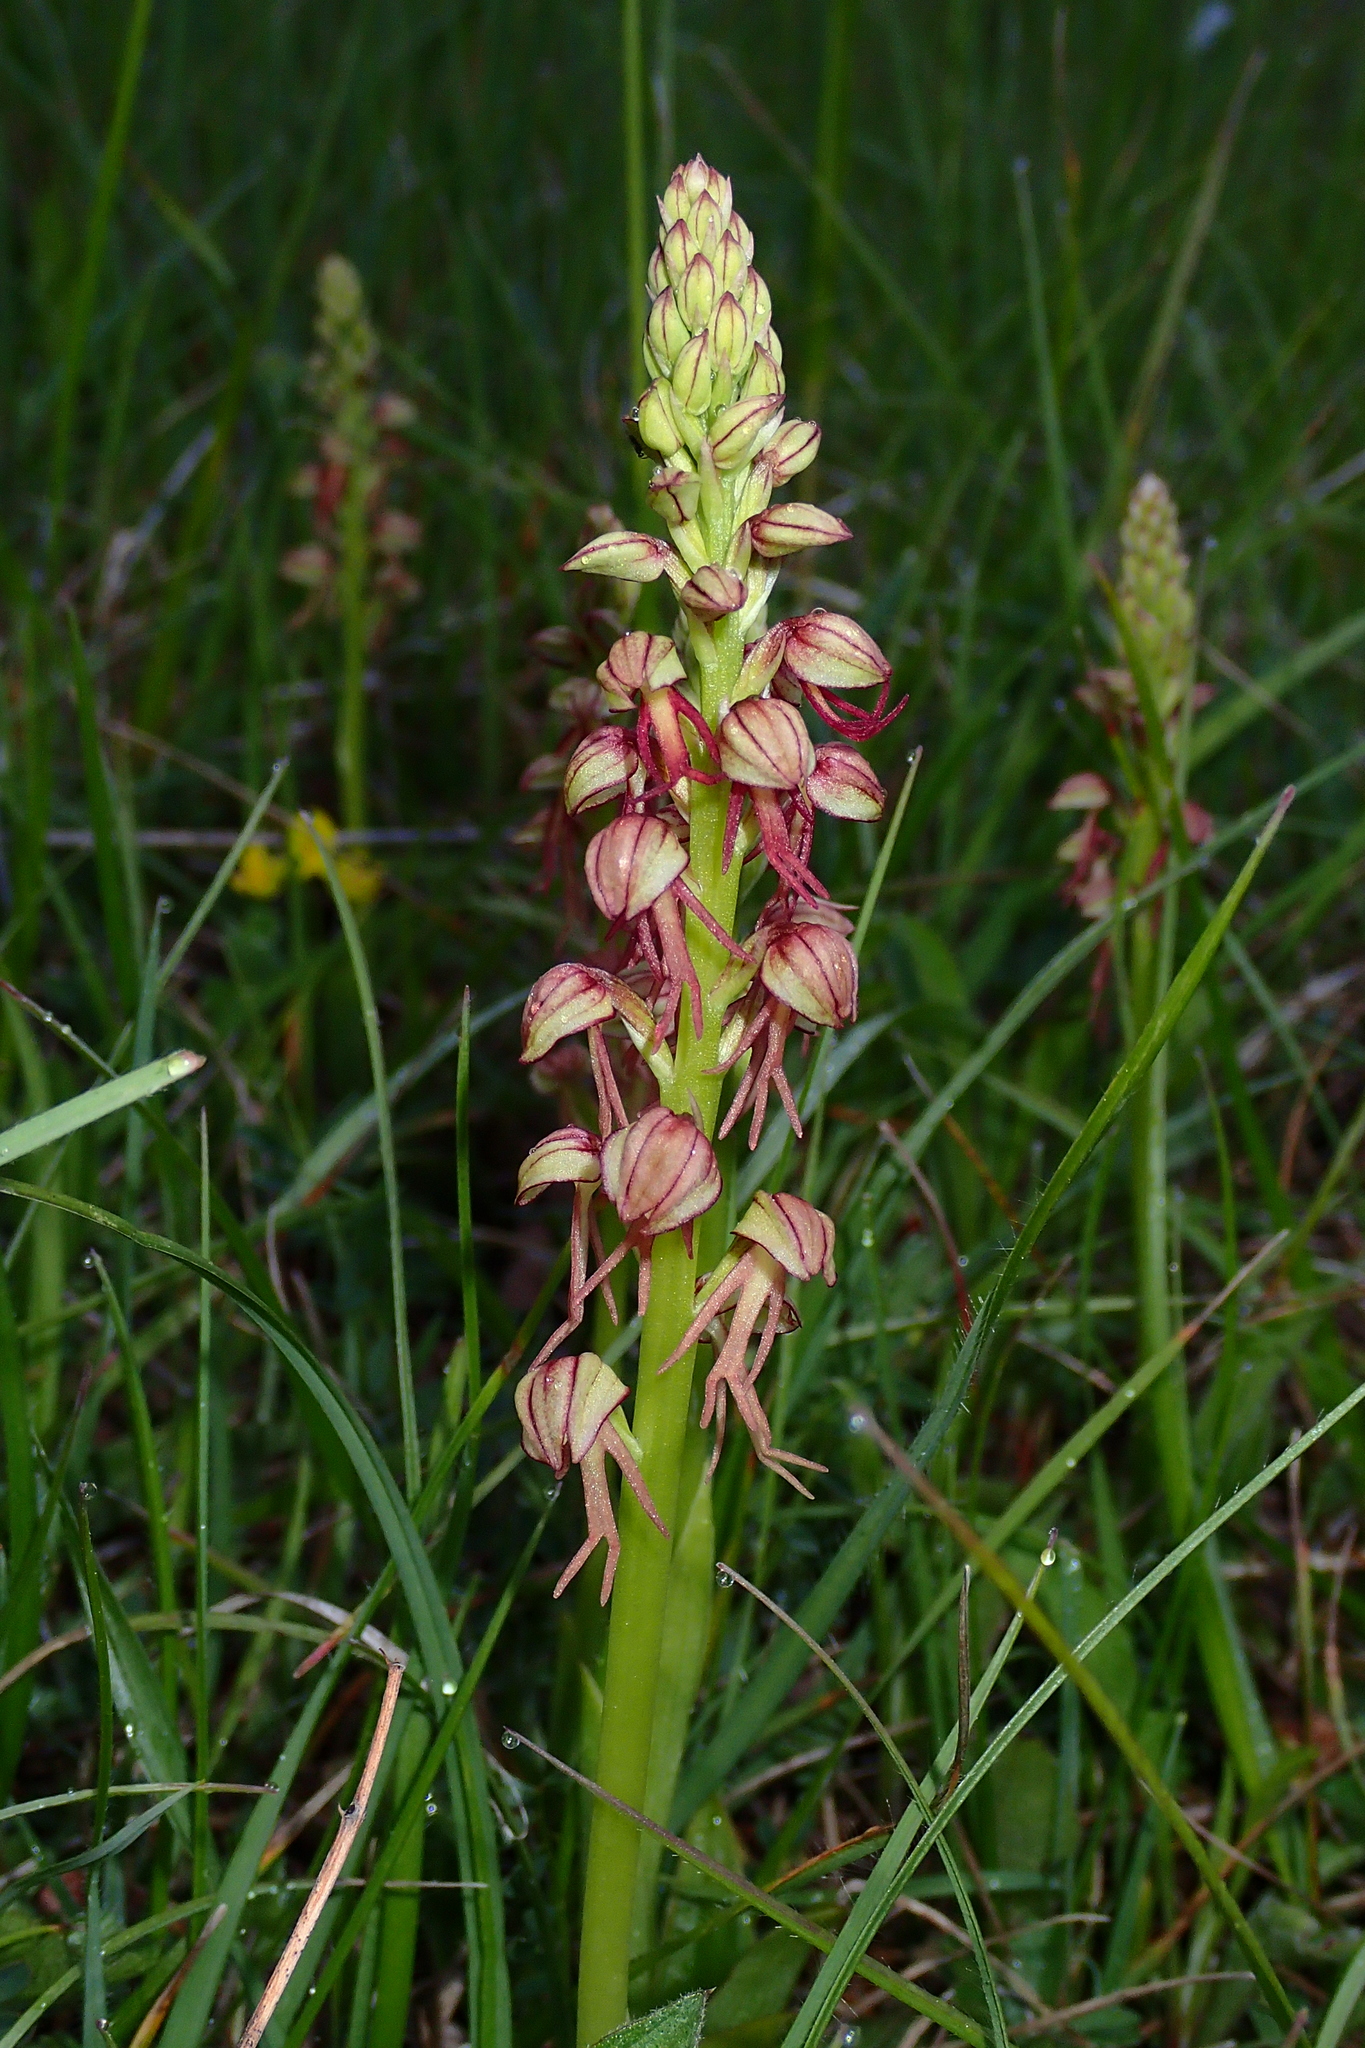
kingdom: Plantae
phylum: Tracheophyta
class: Liliopsida
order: Asparagales
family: Orchidaceae
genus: Orchis
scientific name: Orchis anthropophora
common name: Man orchid
